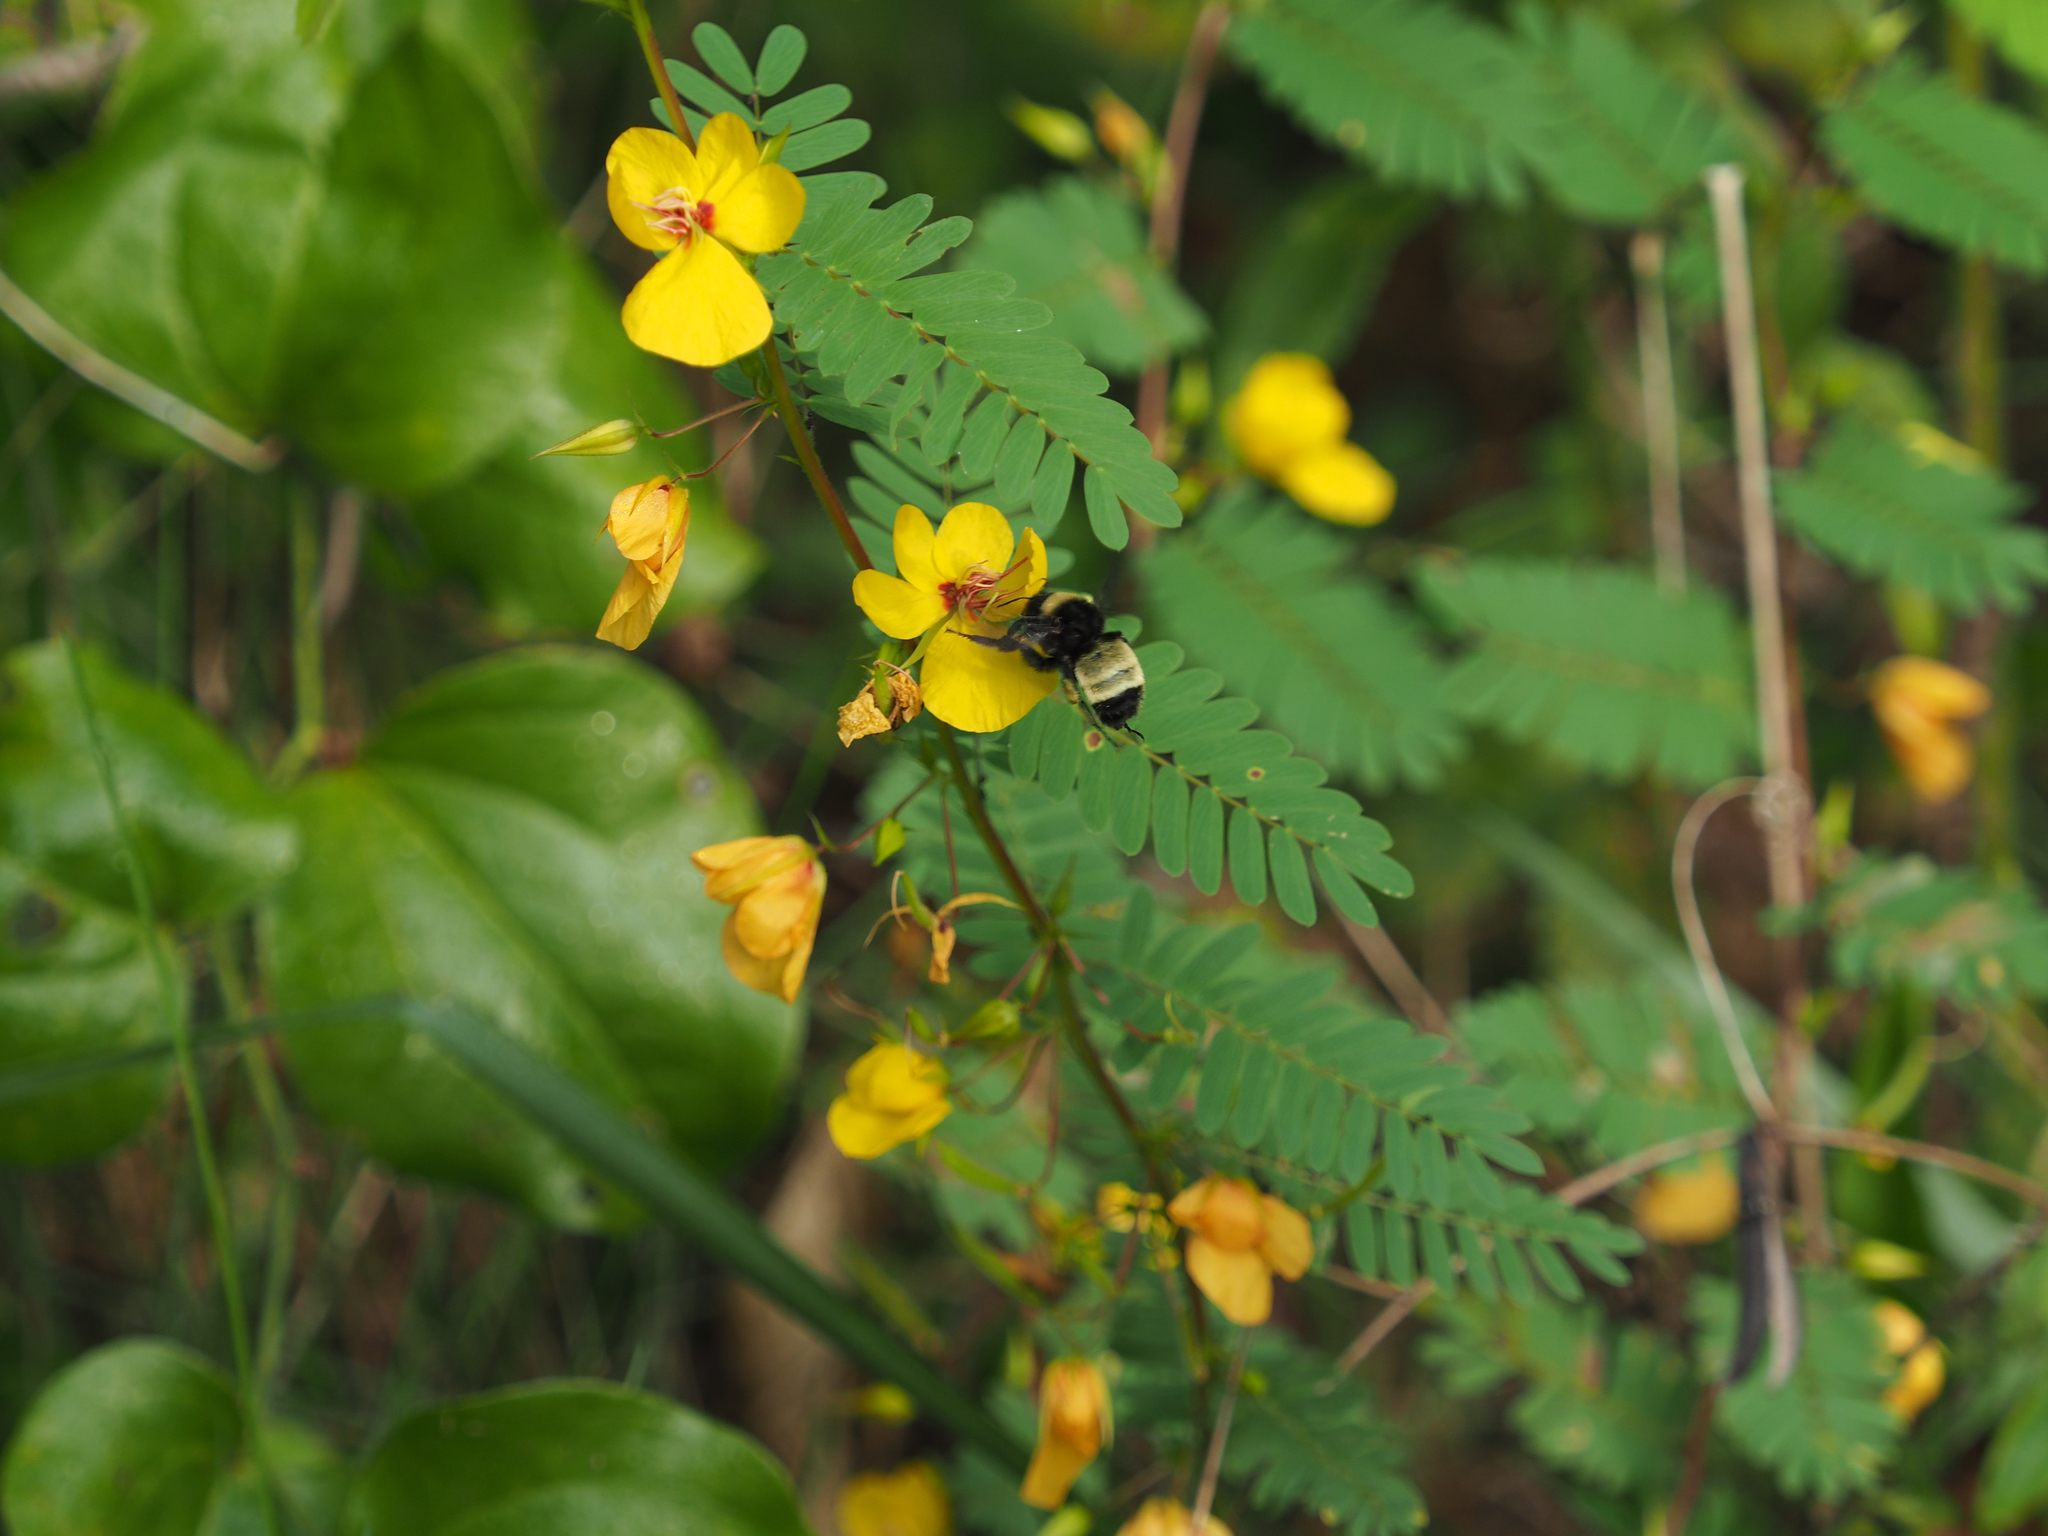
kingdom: Animalia
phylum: Arthropoda
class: Insecta
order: Hymenoptera
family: Apidae
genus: Bombus
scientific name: Bombus pensylvanicus
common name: Bumble bee
